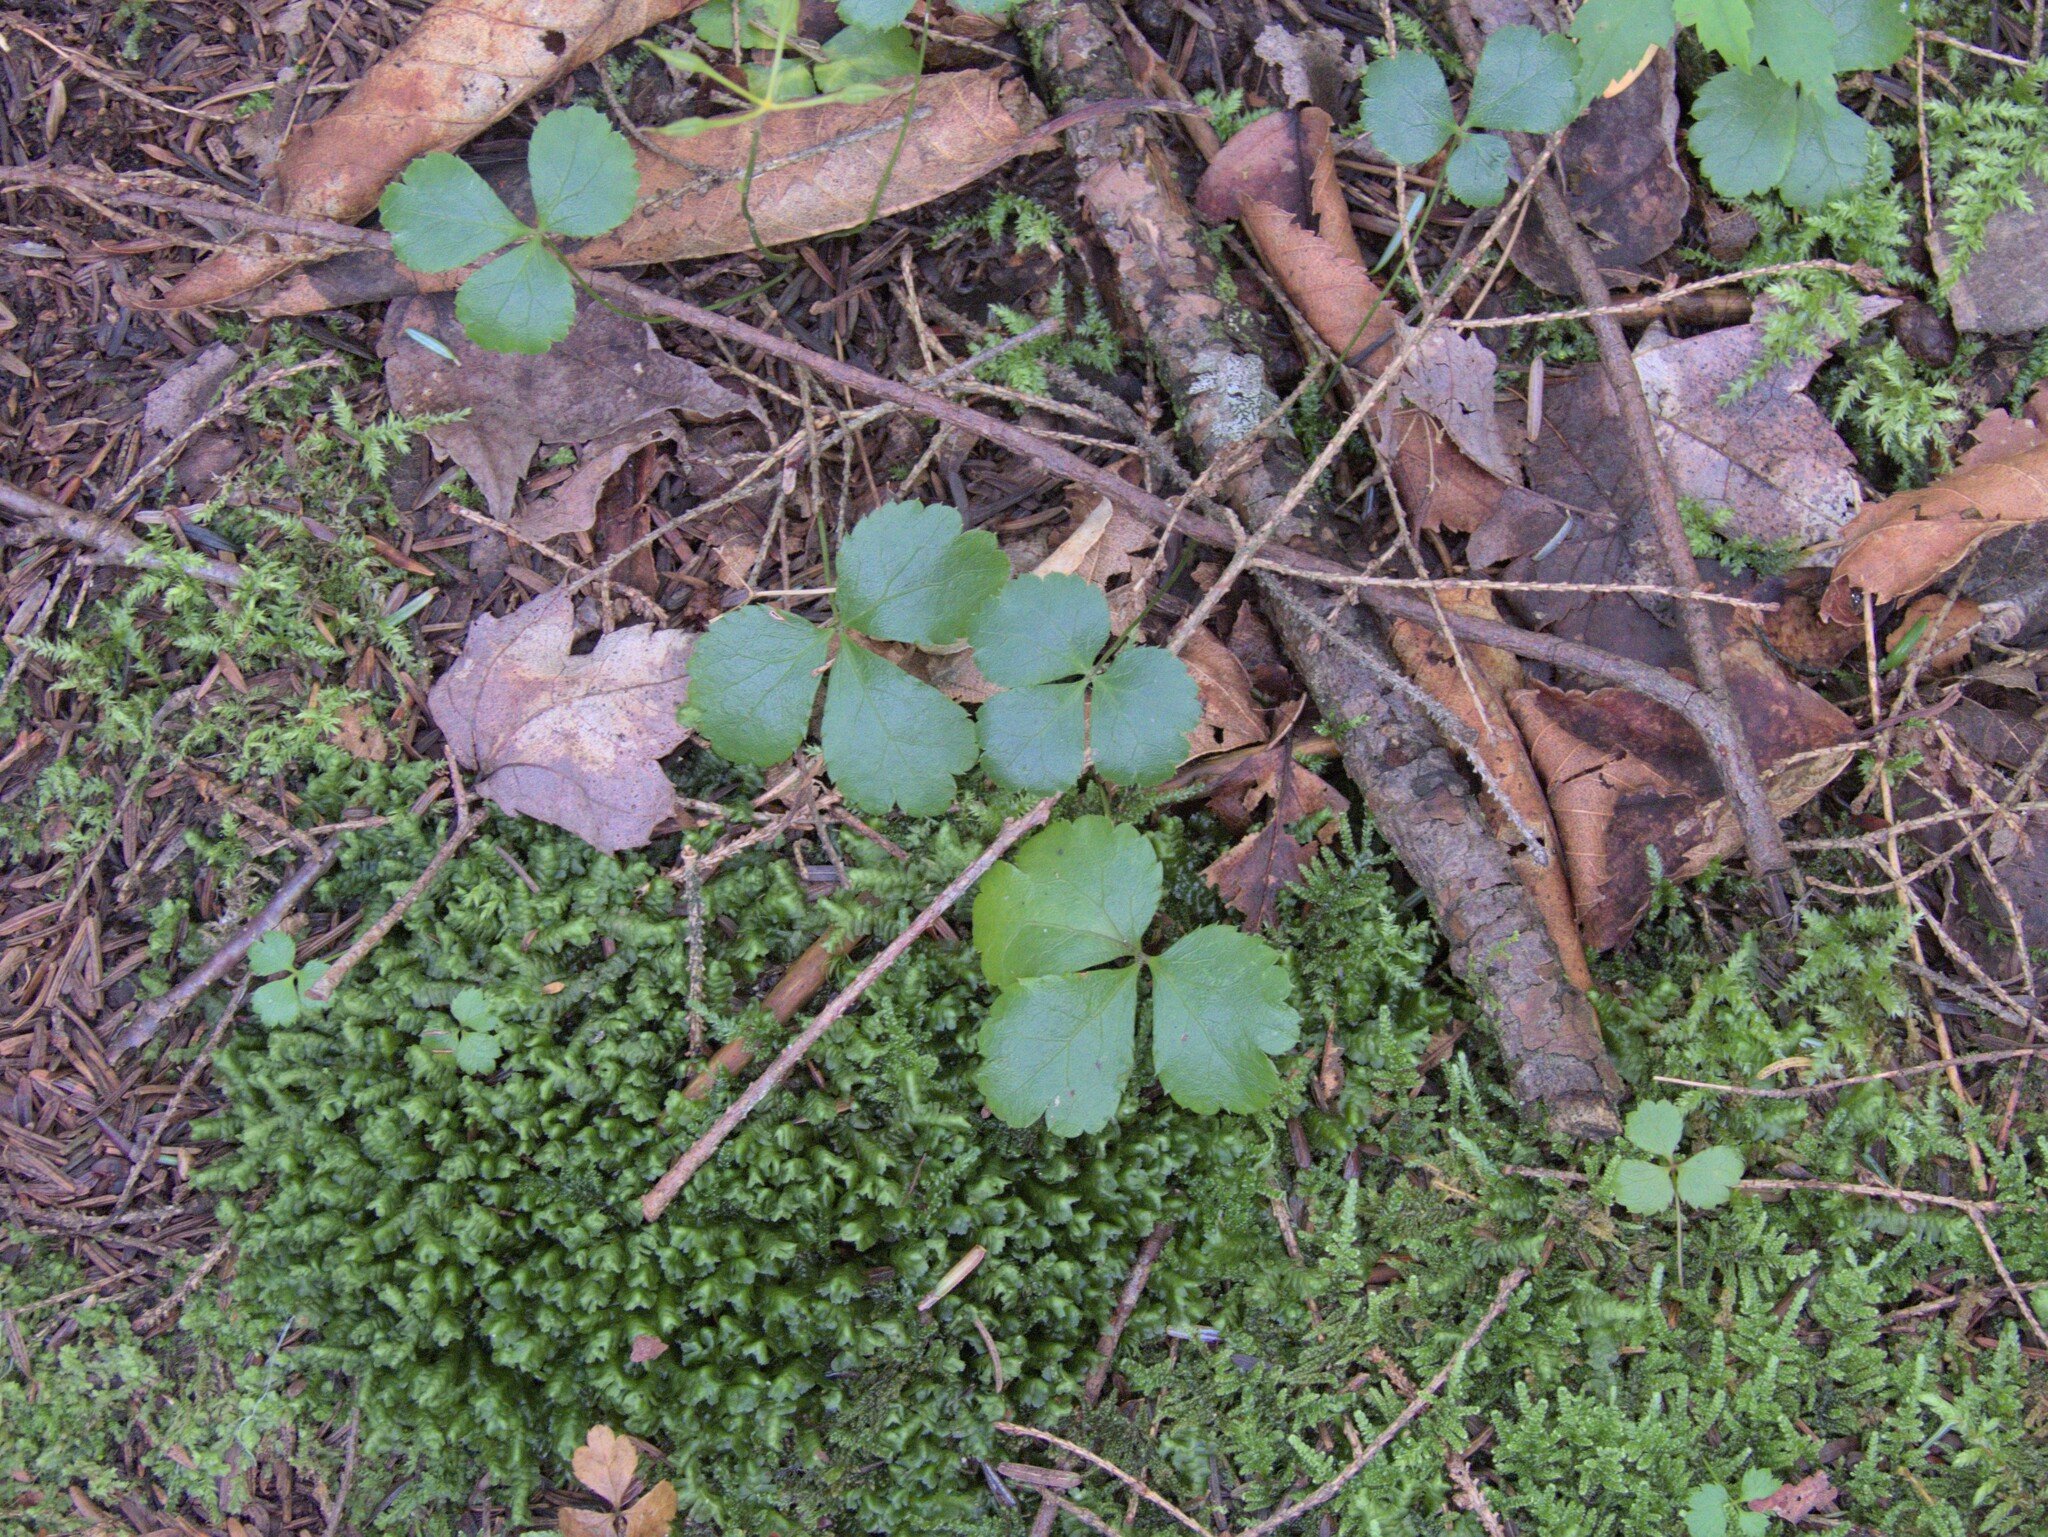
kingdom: Plantae
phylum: Tracheophyta
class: Magnoliopsida
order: Ranunculales
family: Ranunculaceae
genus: Coptis
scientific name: Coptis trifolia
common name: Canker-root
